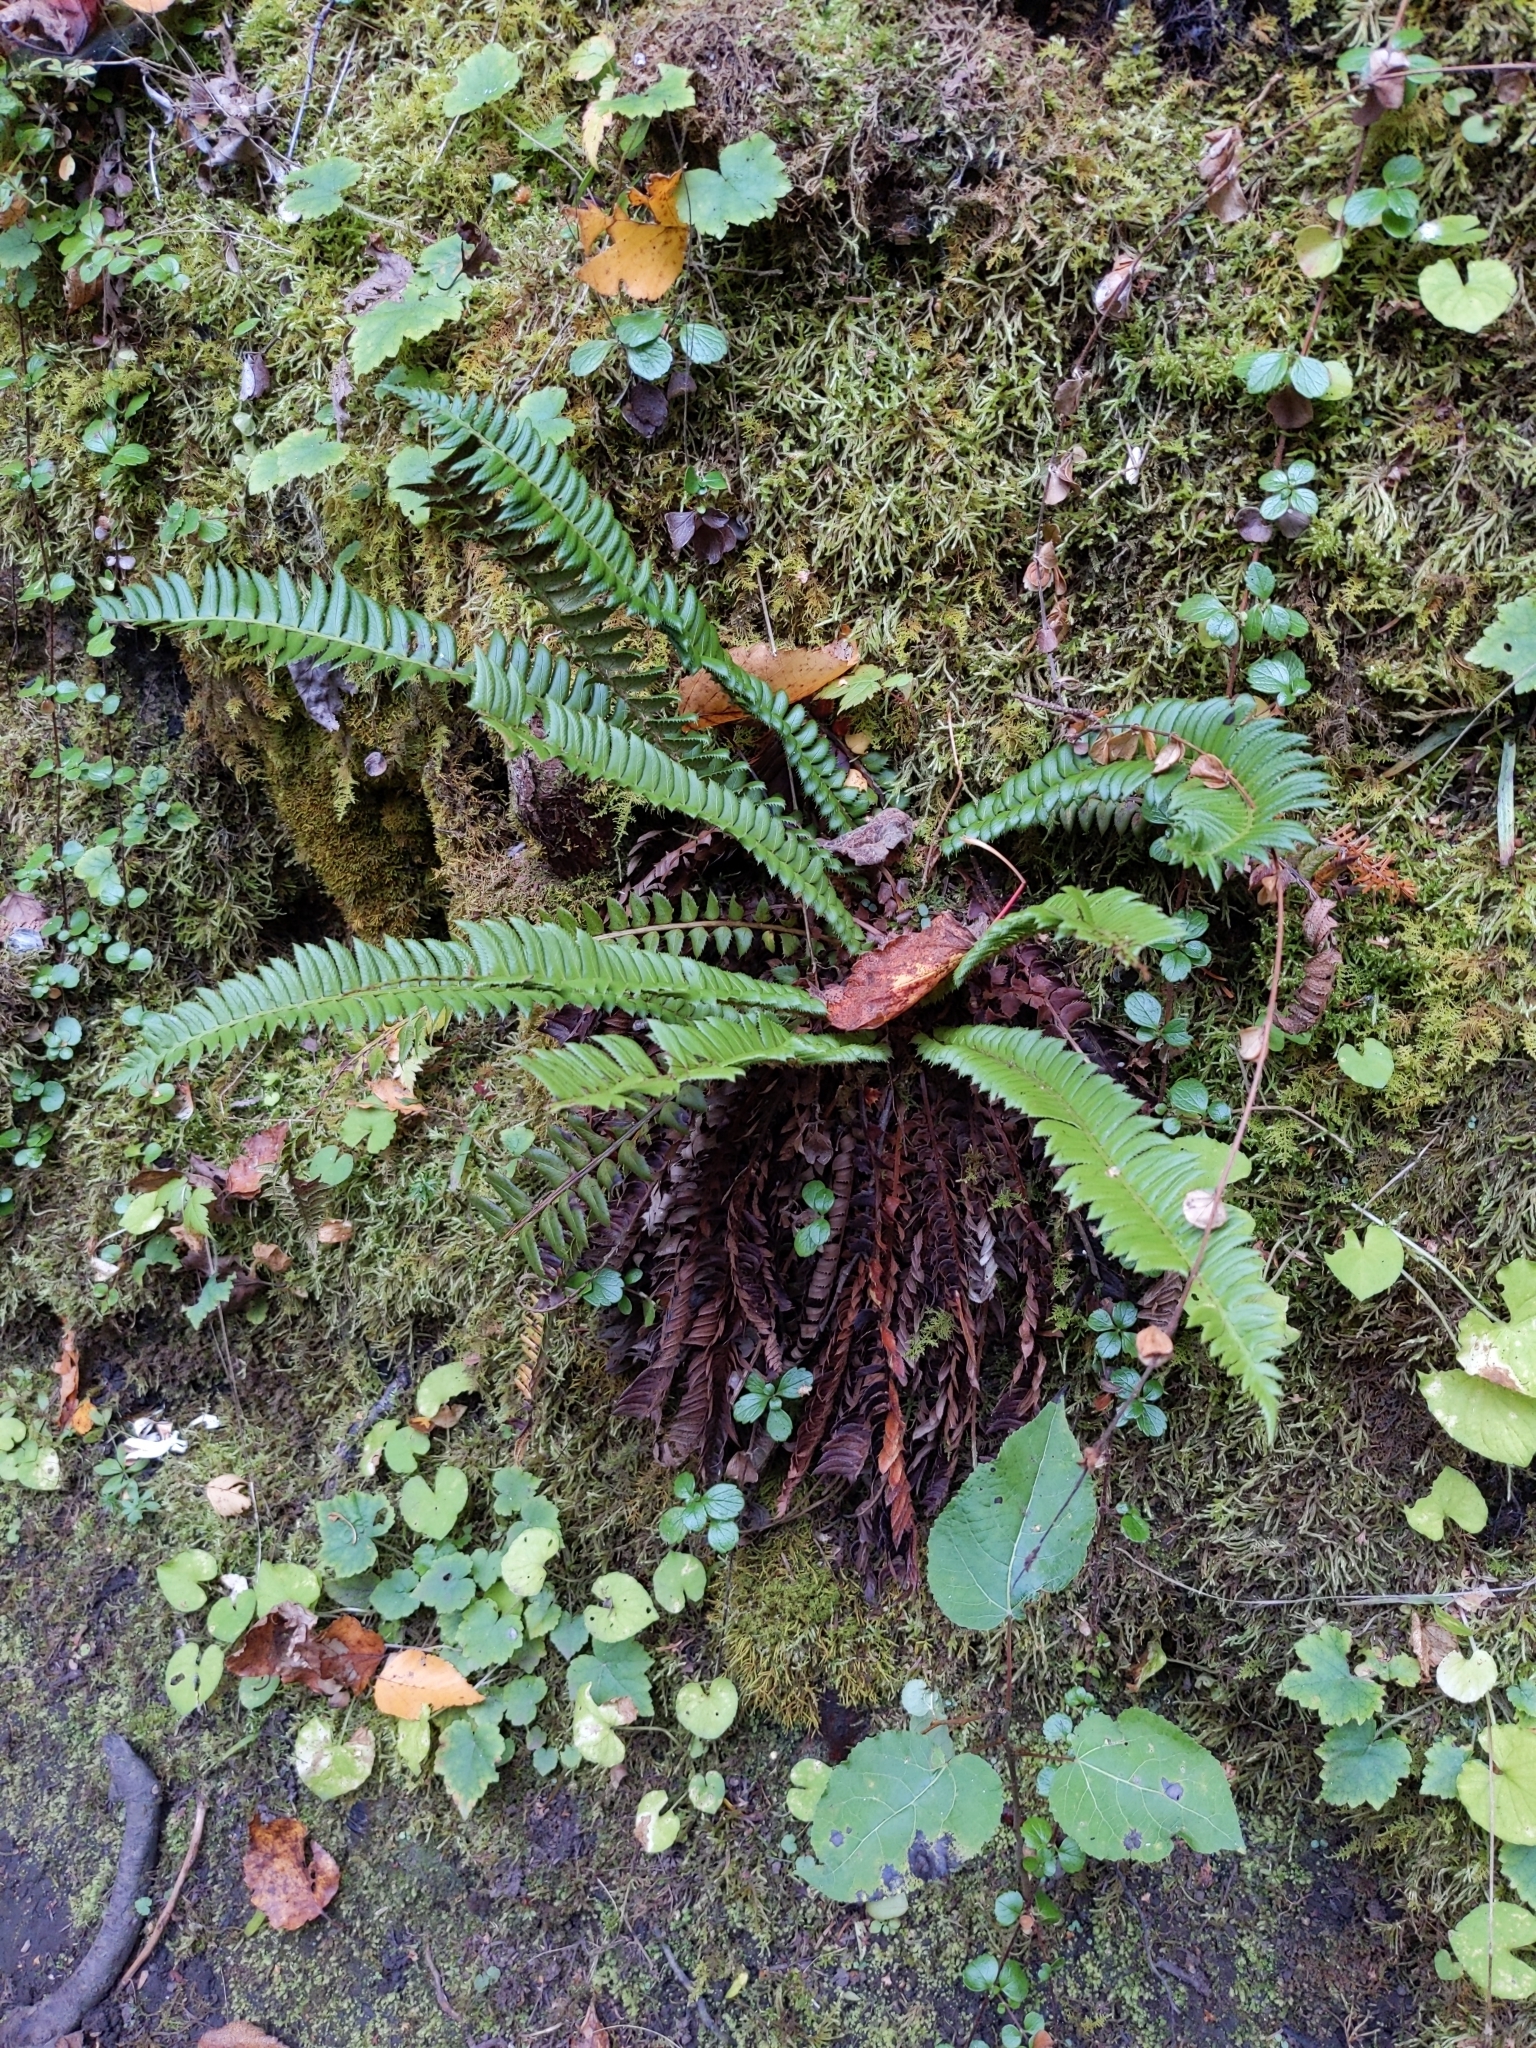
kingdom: Plantae
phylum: Tracheophyta
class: Polypodiopsida
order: Polypodiales
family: Dryopteridaceae
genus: Polystichum
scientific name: Polystichum lonchitis
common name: Holly fern
